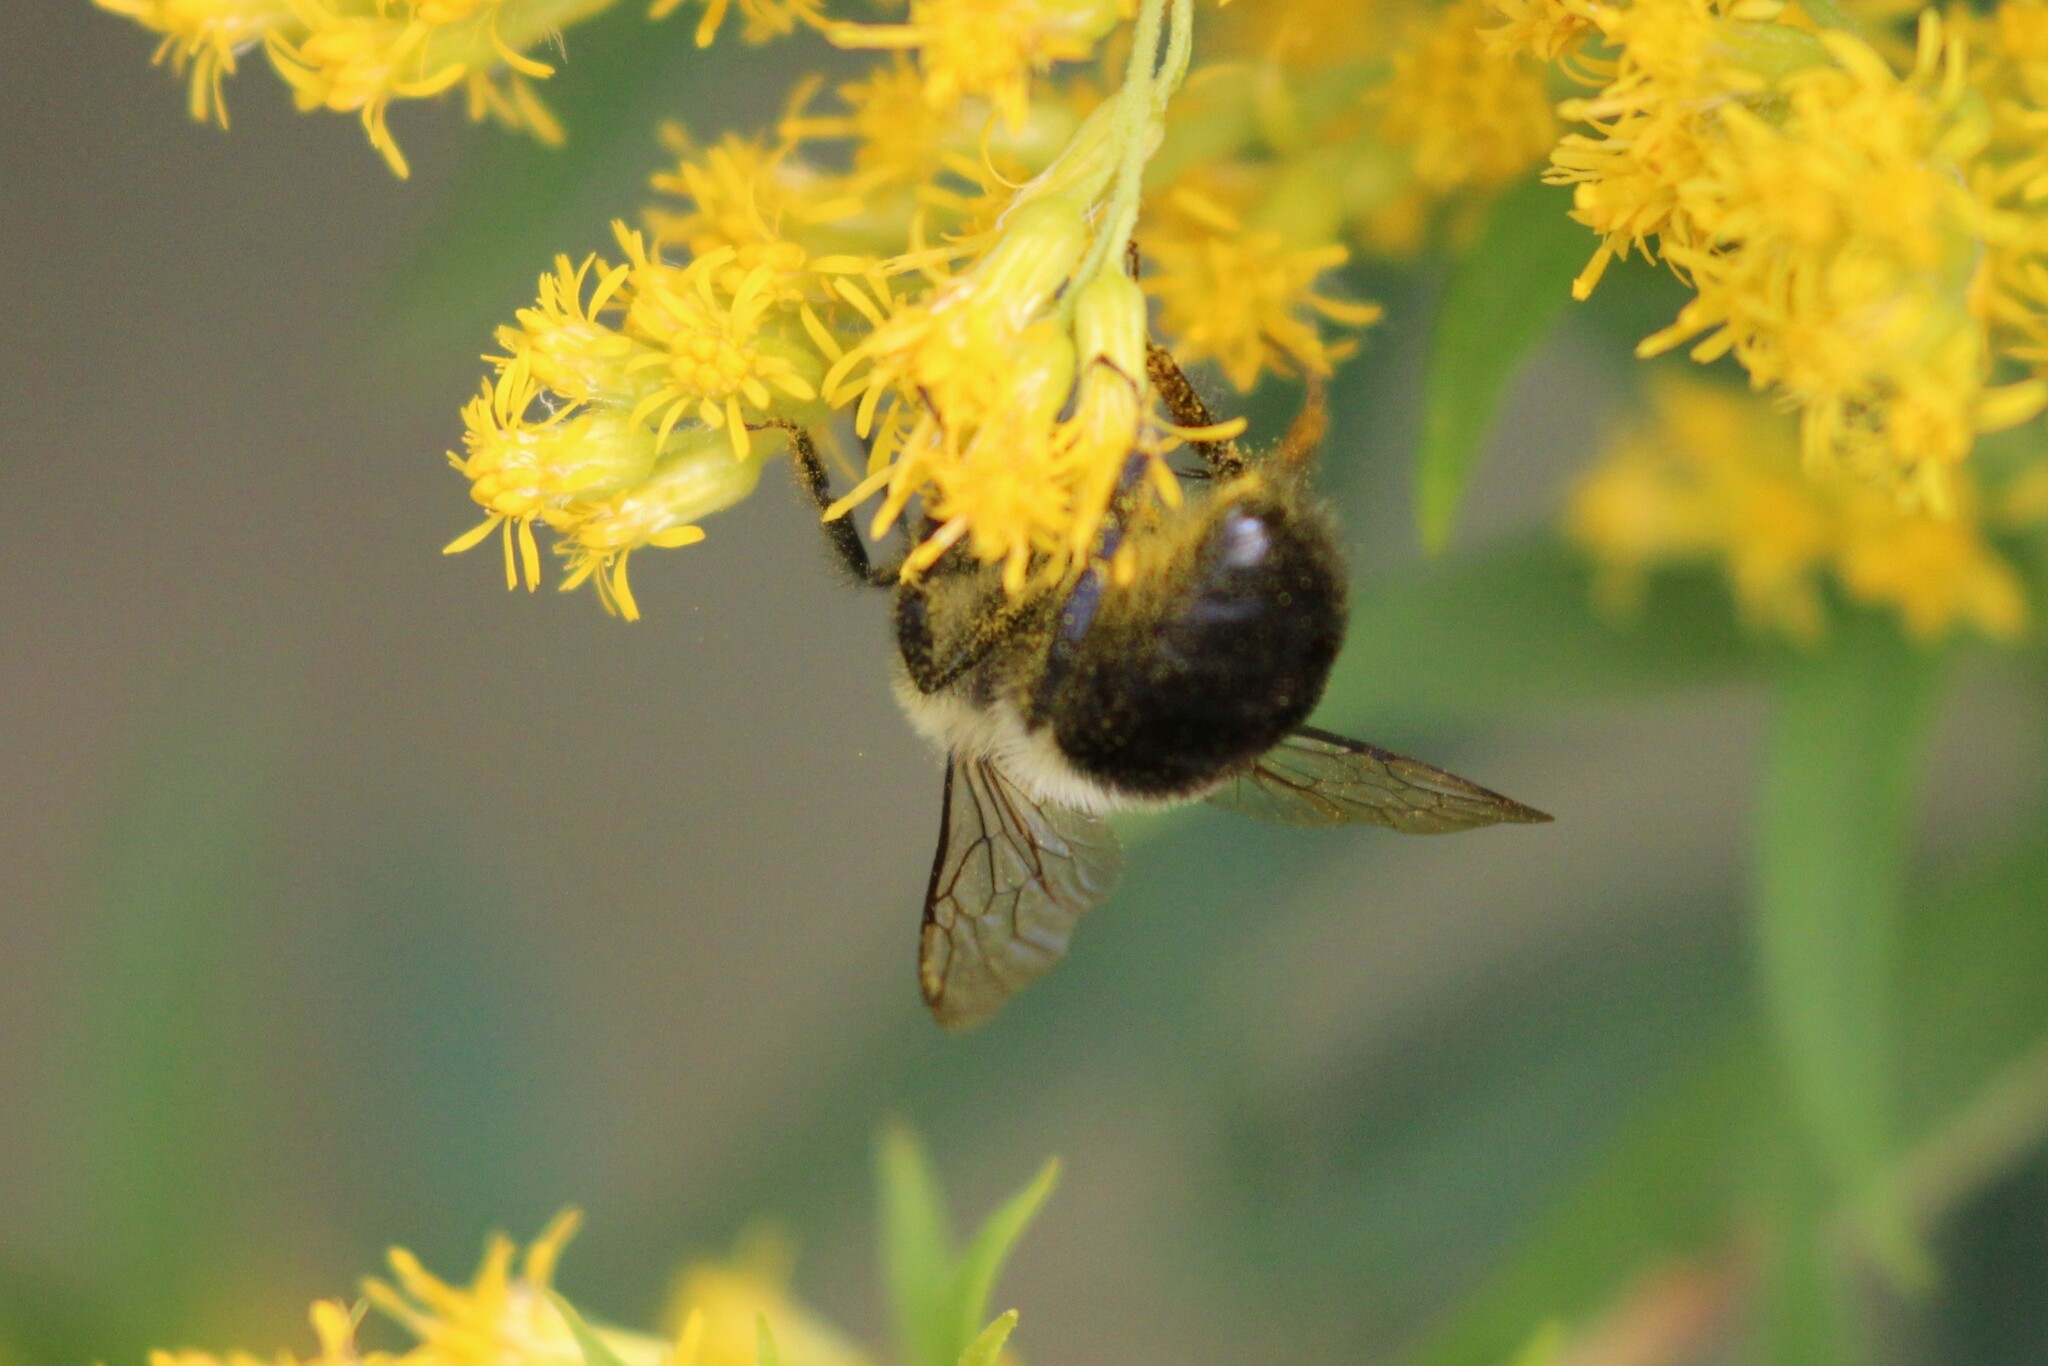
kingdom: Animalia
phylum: Arthropoda
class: Insecta
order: Hymenoptera
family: Apidae
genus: Bombus
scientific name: Bombus impatiens
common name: Common eastern bumble bee
